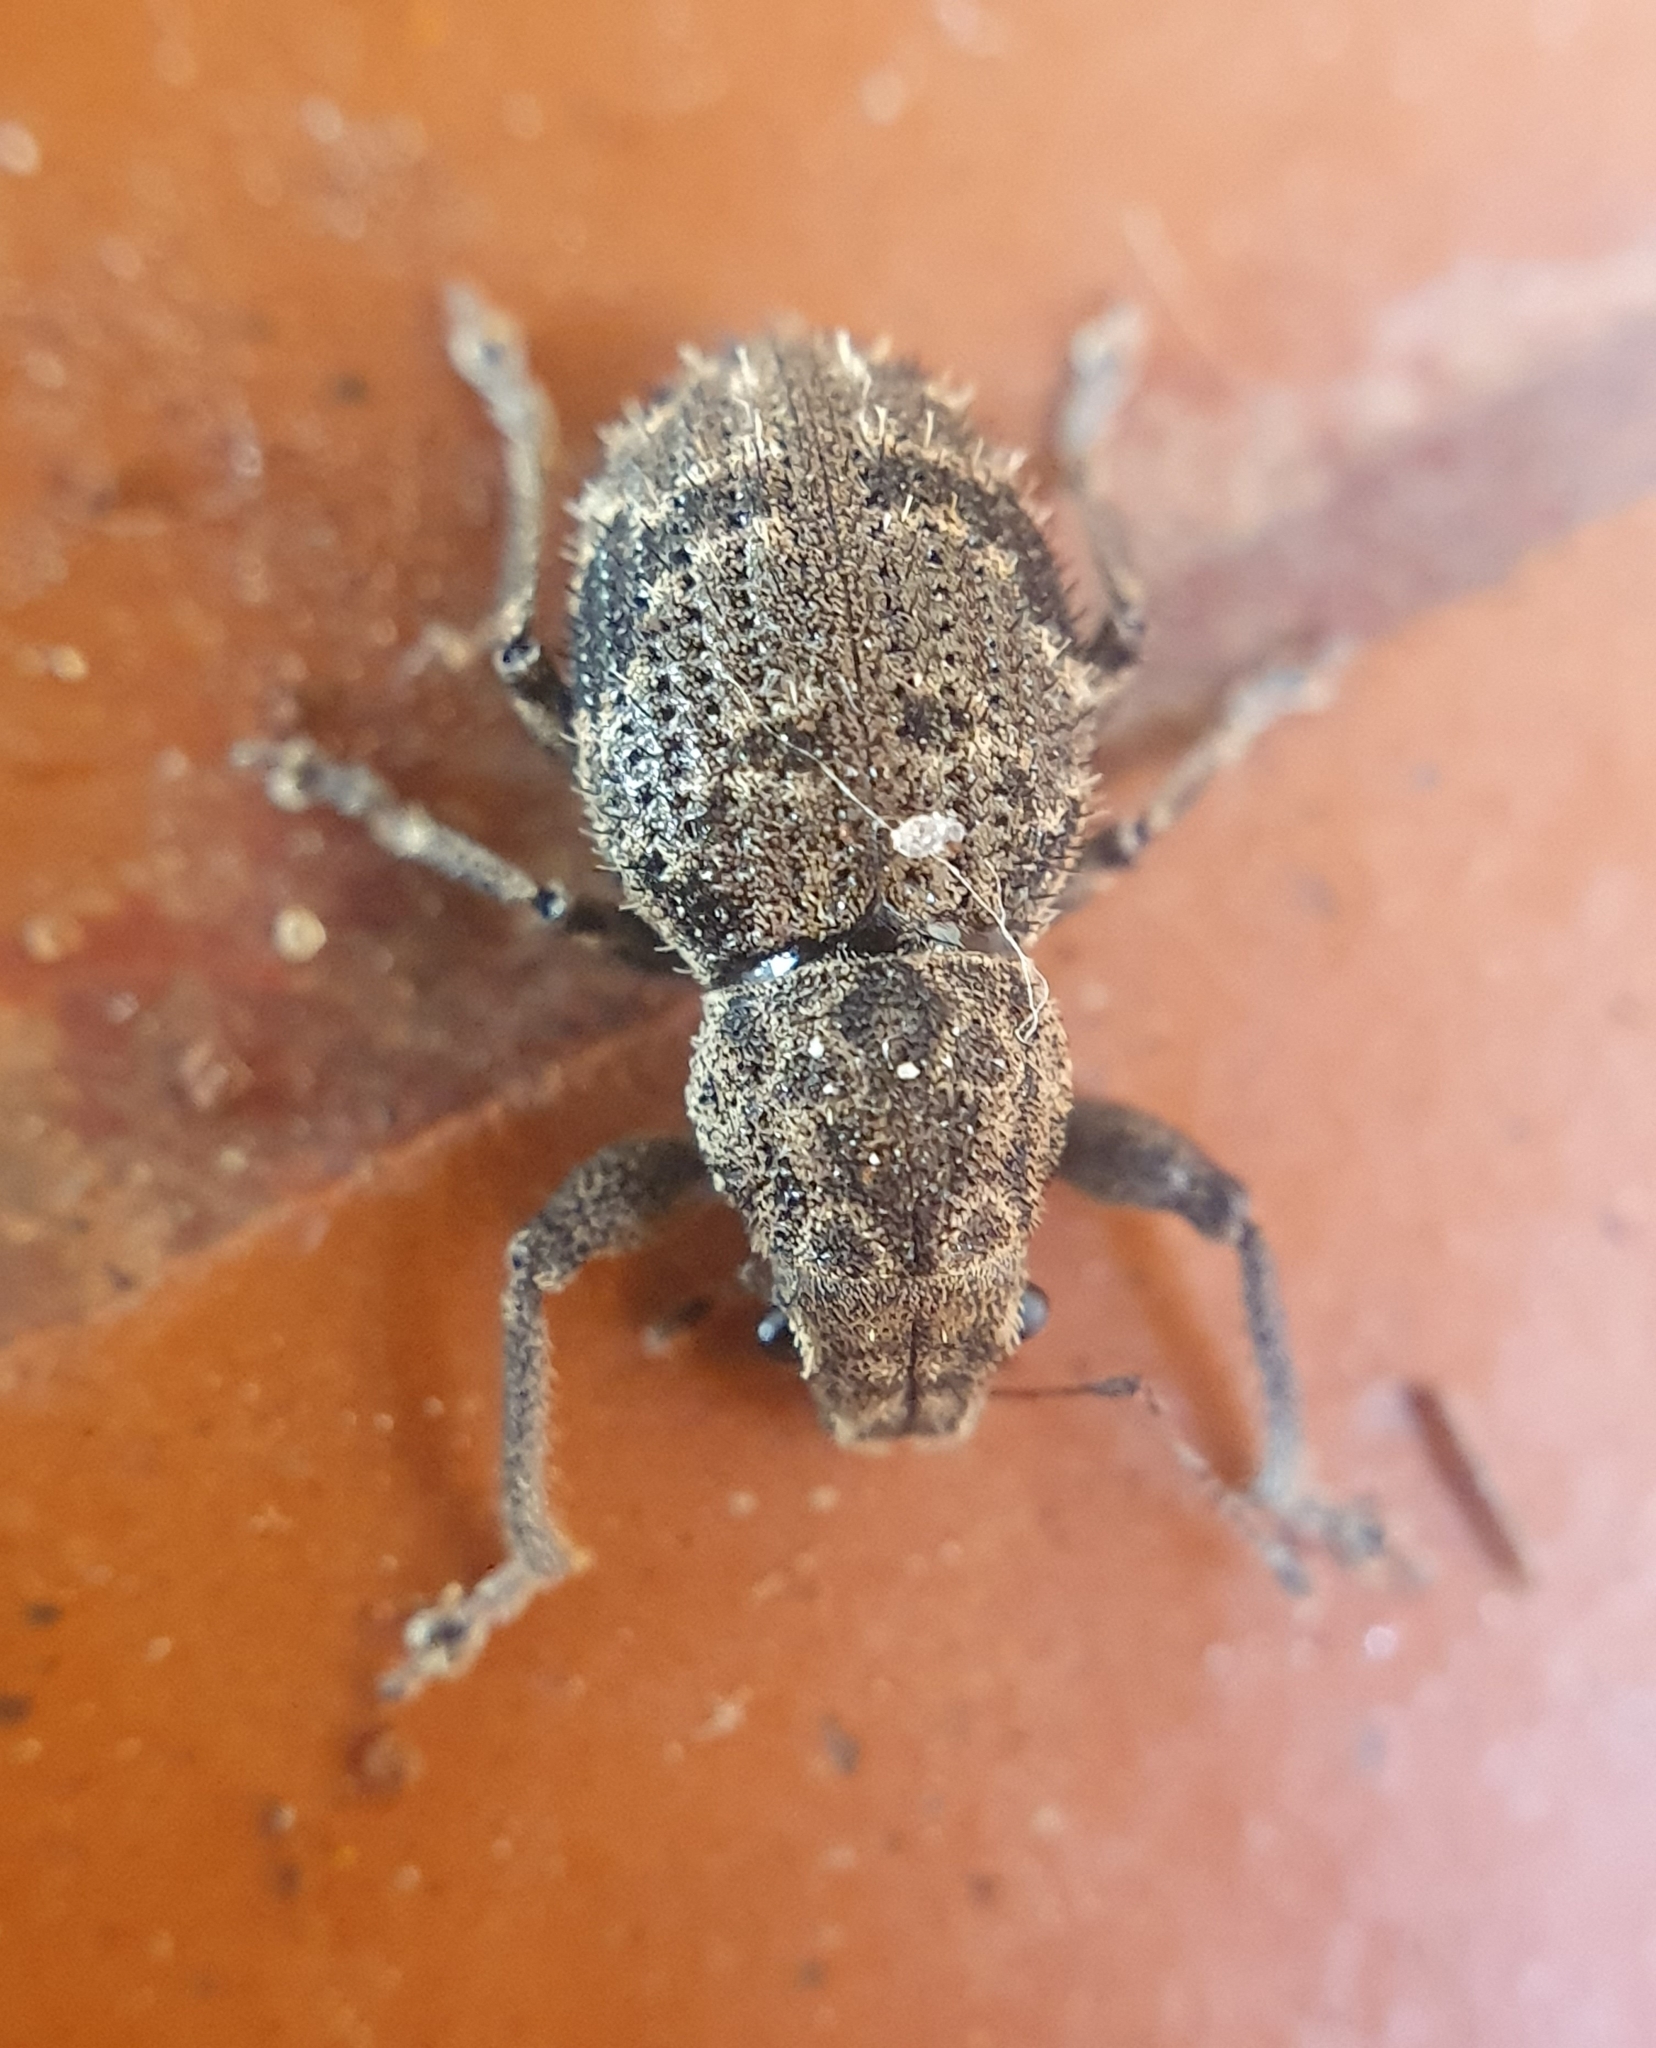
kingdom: Animalia
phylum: Arthropoda
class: Insecta
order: Coleoptera
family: Curculionidae
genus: Pantomorus
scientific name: Pantomorus
